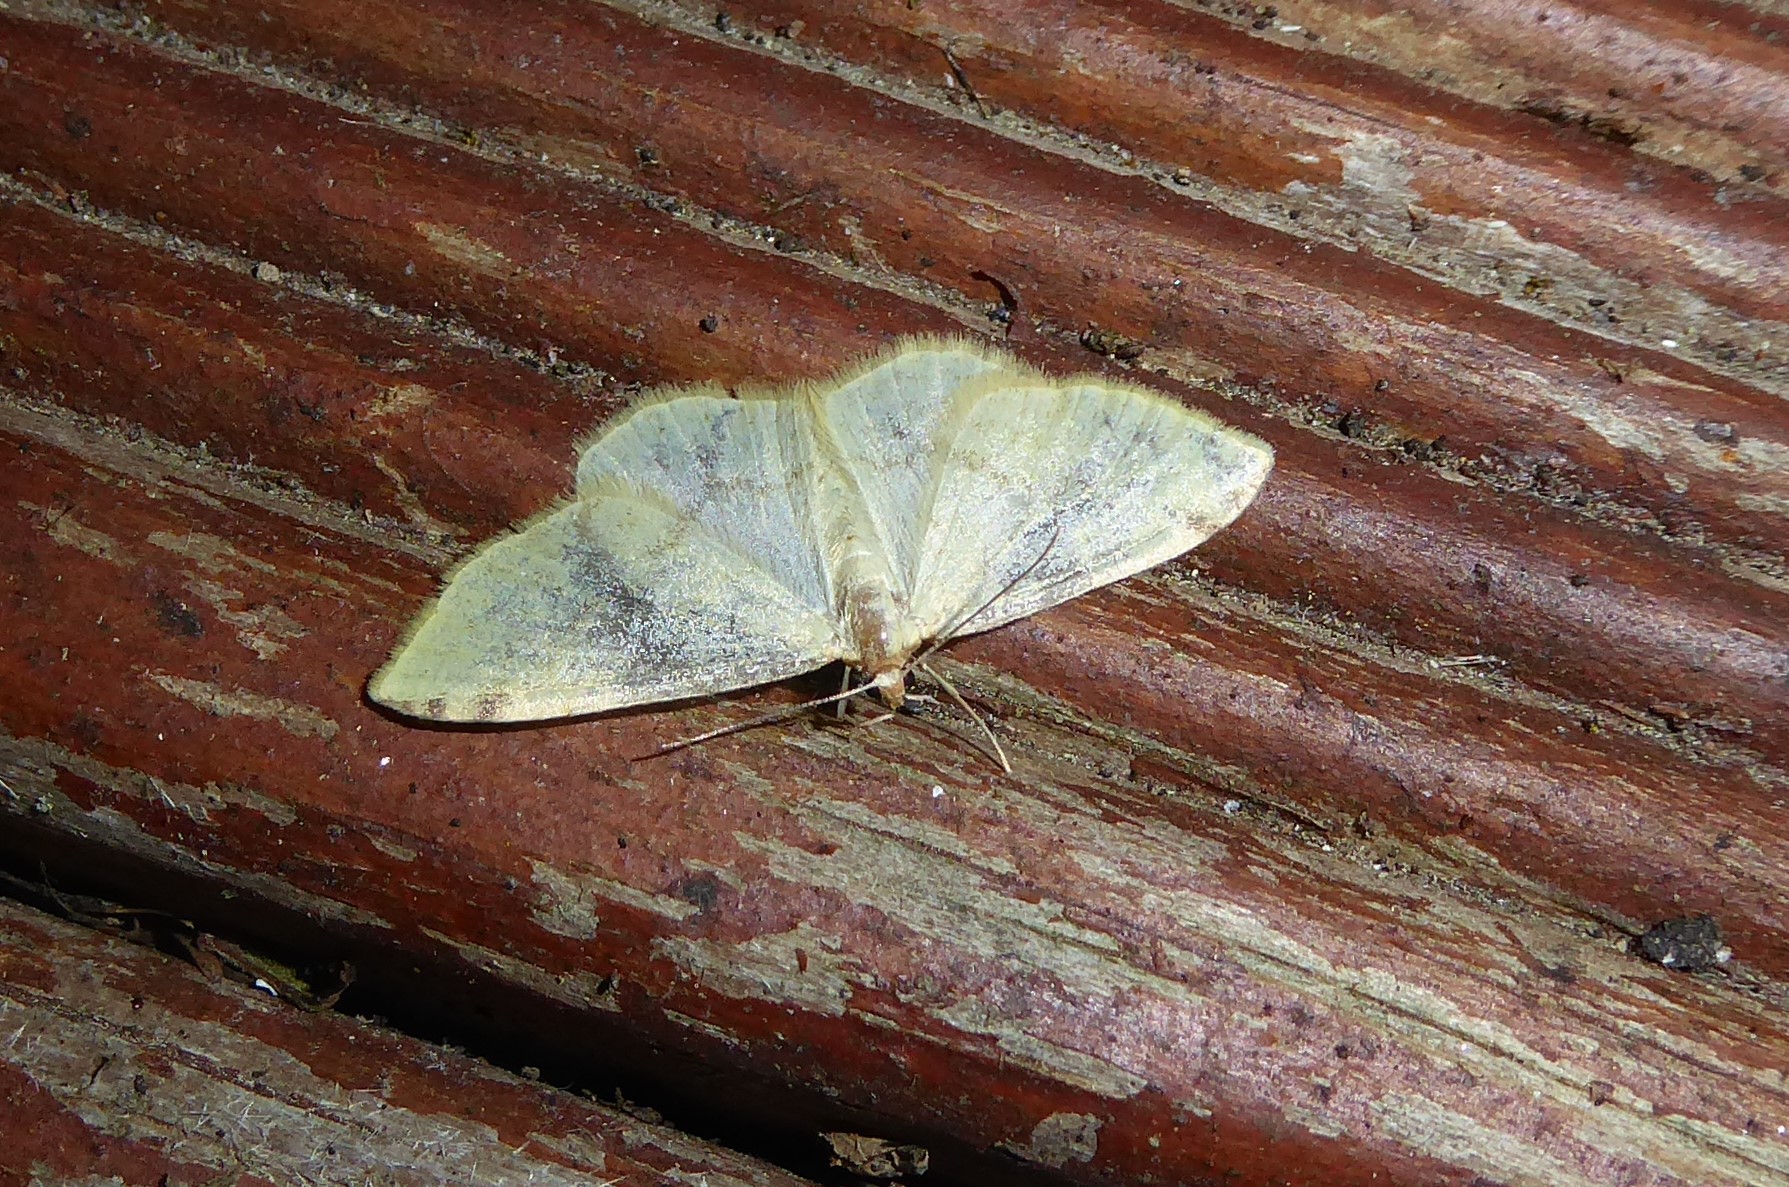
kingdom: Animalia
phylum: Arthropoda
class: Insecta
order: Lepidoptera
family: Geometridae
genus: Epiphryne
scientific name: Epiphryne undosata
